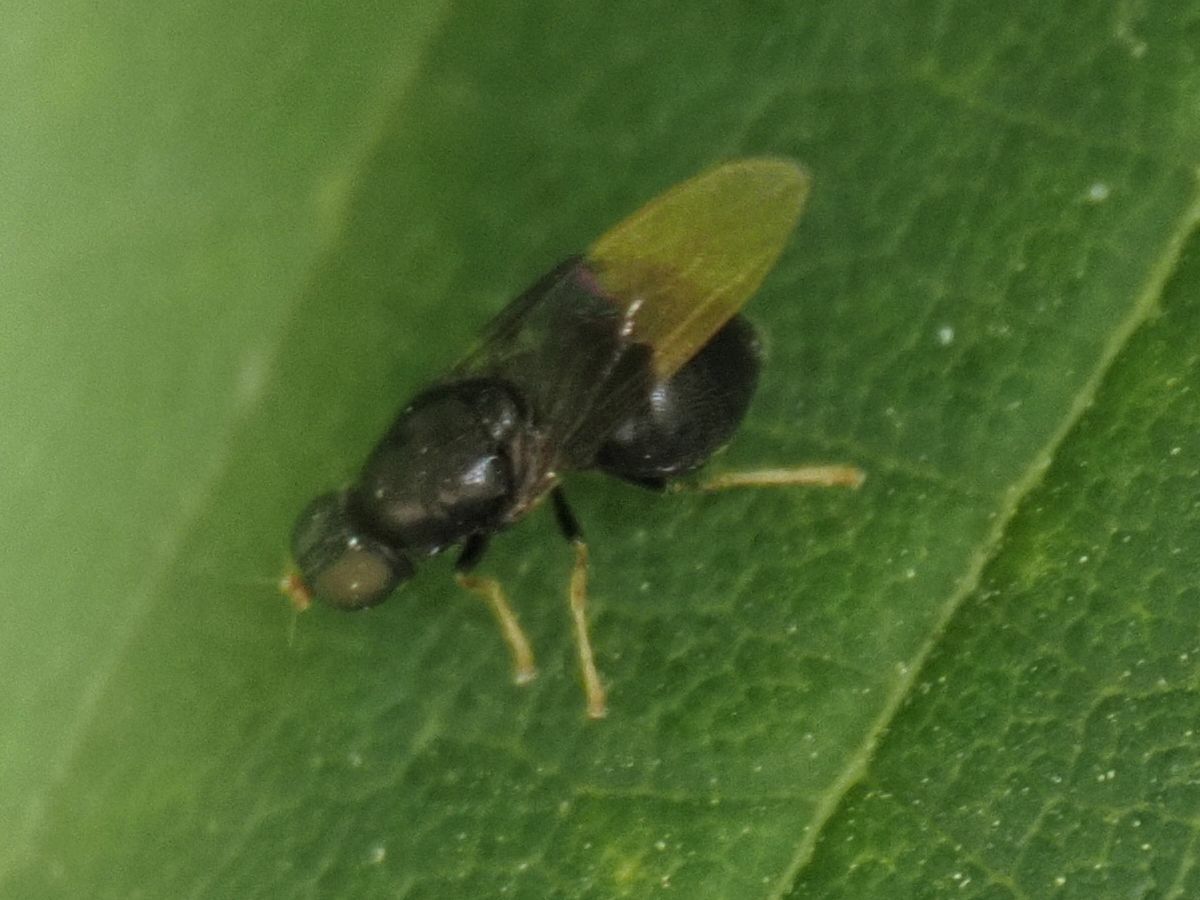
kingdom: Animalia
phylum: Arthropoda
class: Insecta
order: Diptera
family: Stratiomyidae
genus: Pachygaster
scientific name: Pachygaster atra
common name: Dark-winged black
